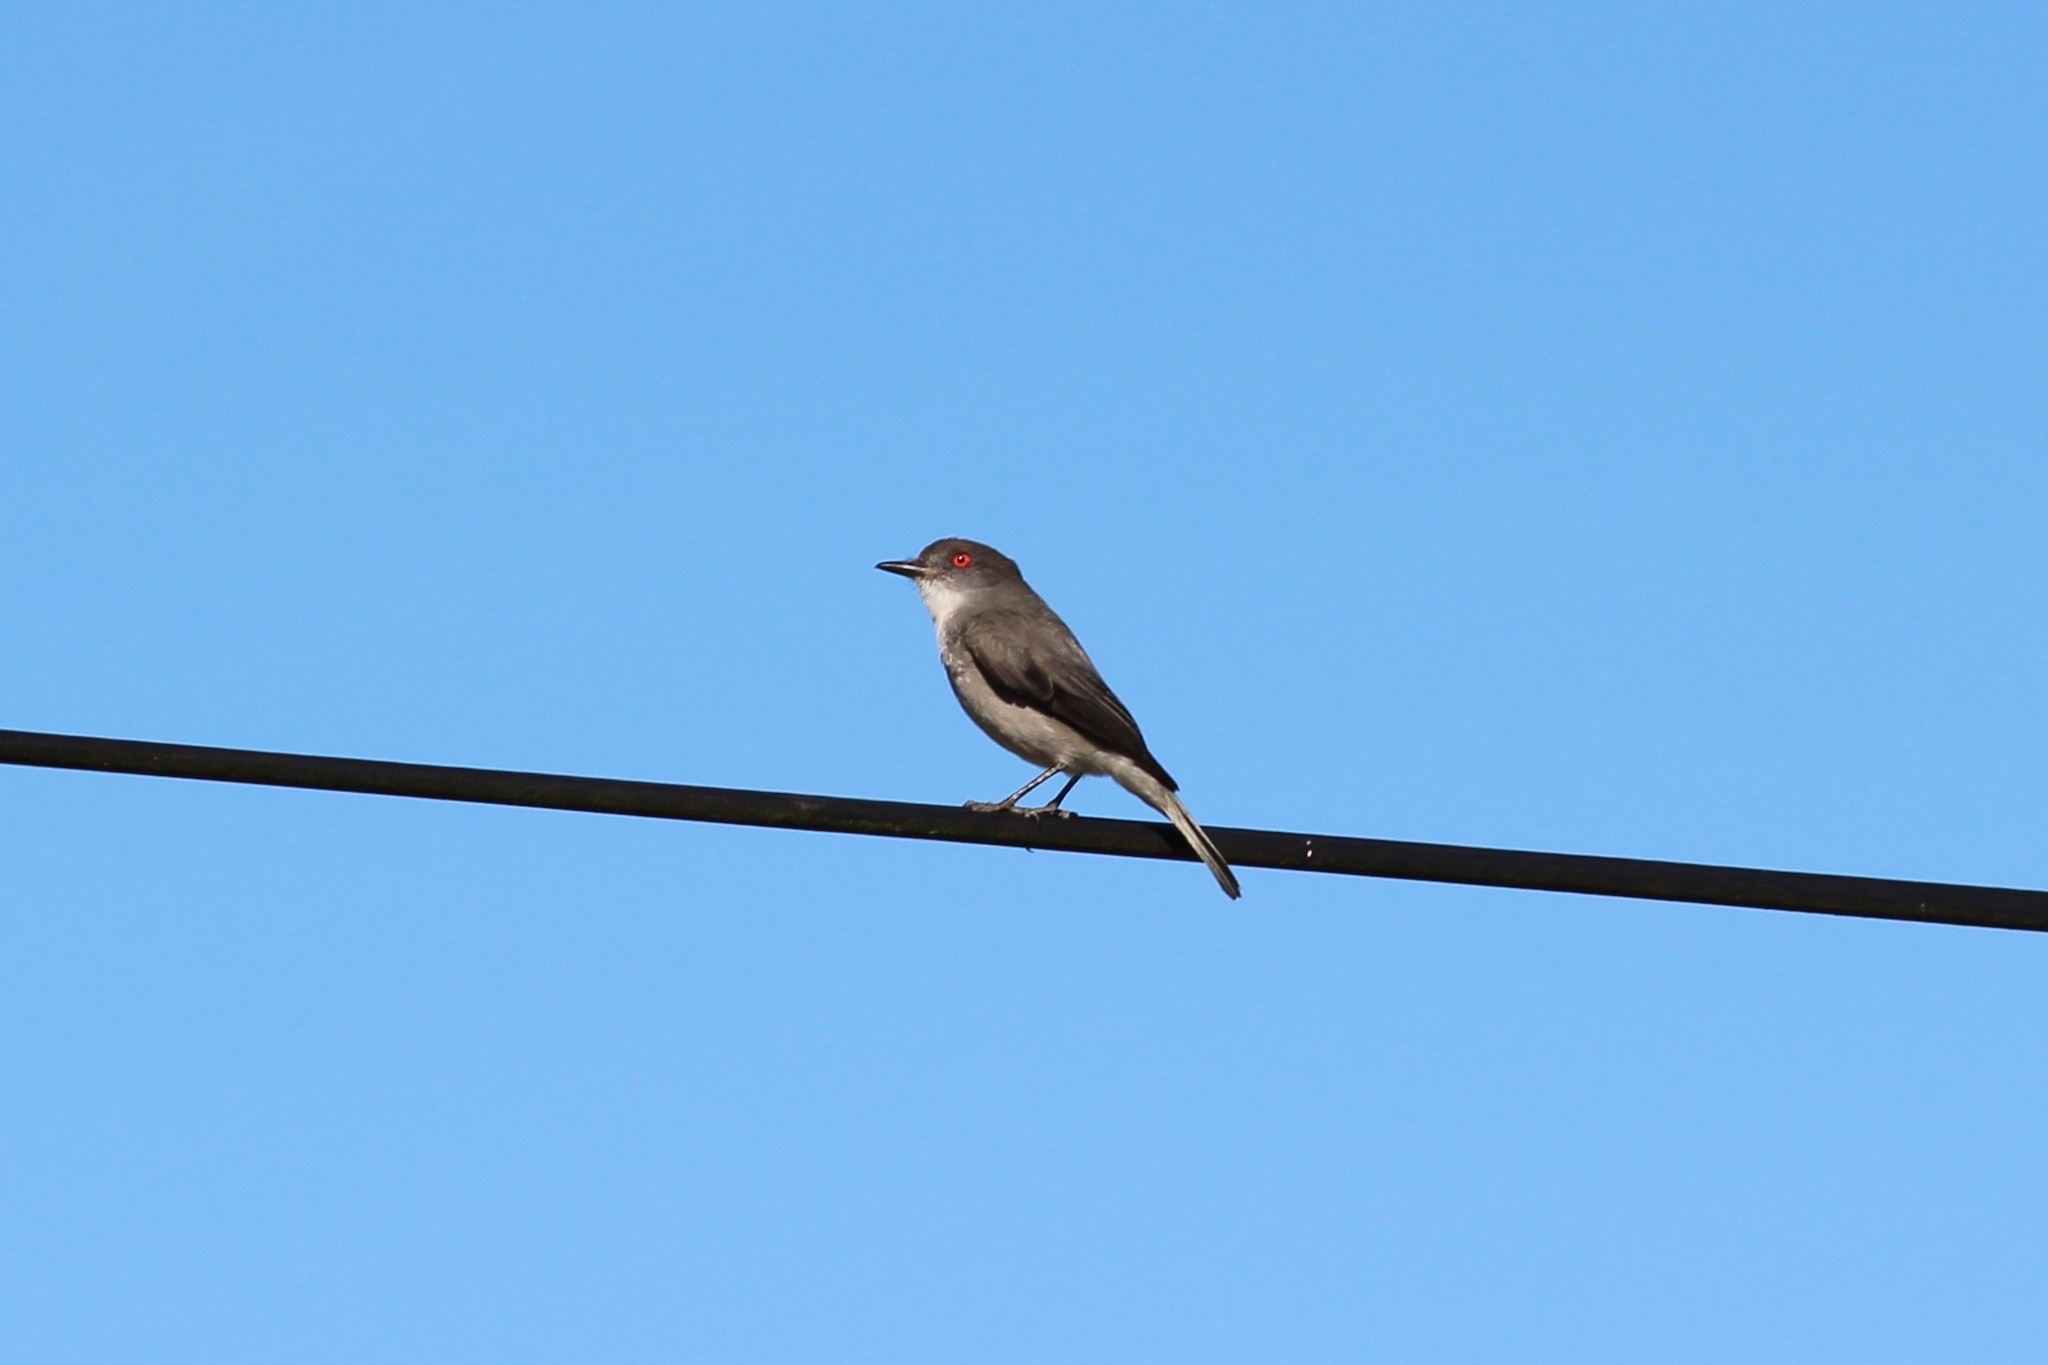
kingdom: Animalia
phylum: Chordata
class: Aves
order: Passeriformes
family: Tyrannidae
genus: Xolmis
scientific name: Xolmis pyrope
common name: Fire-eyed diucon
